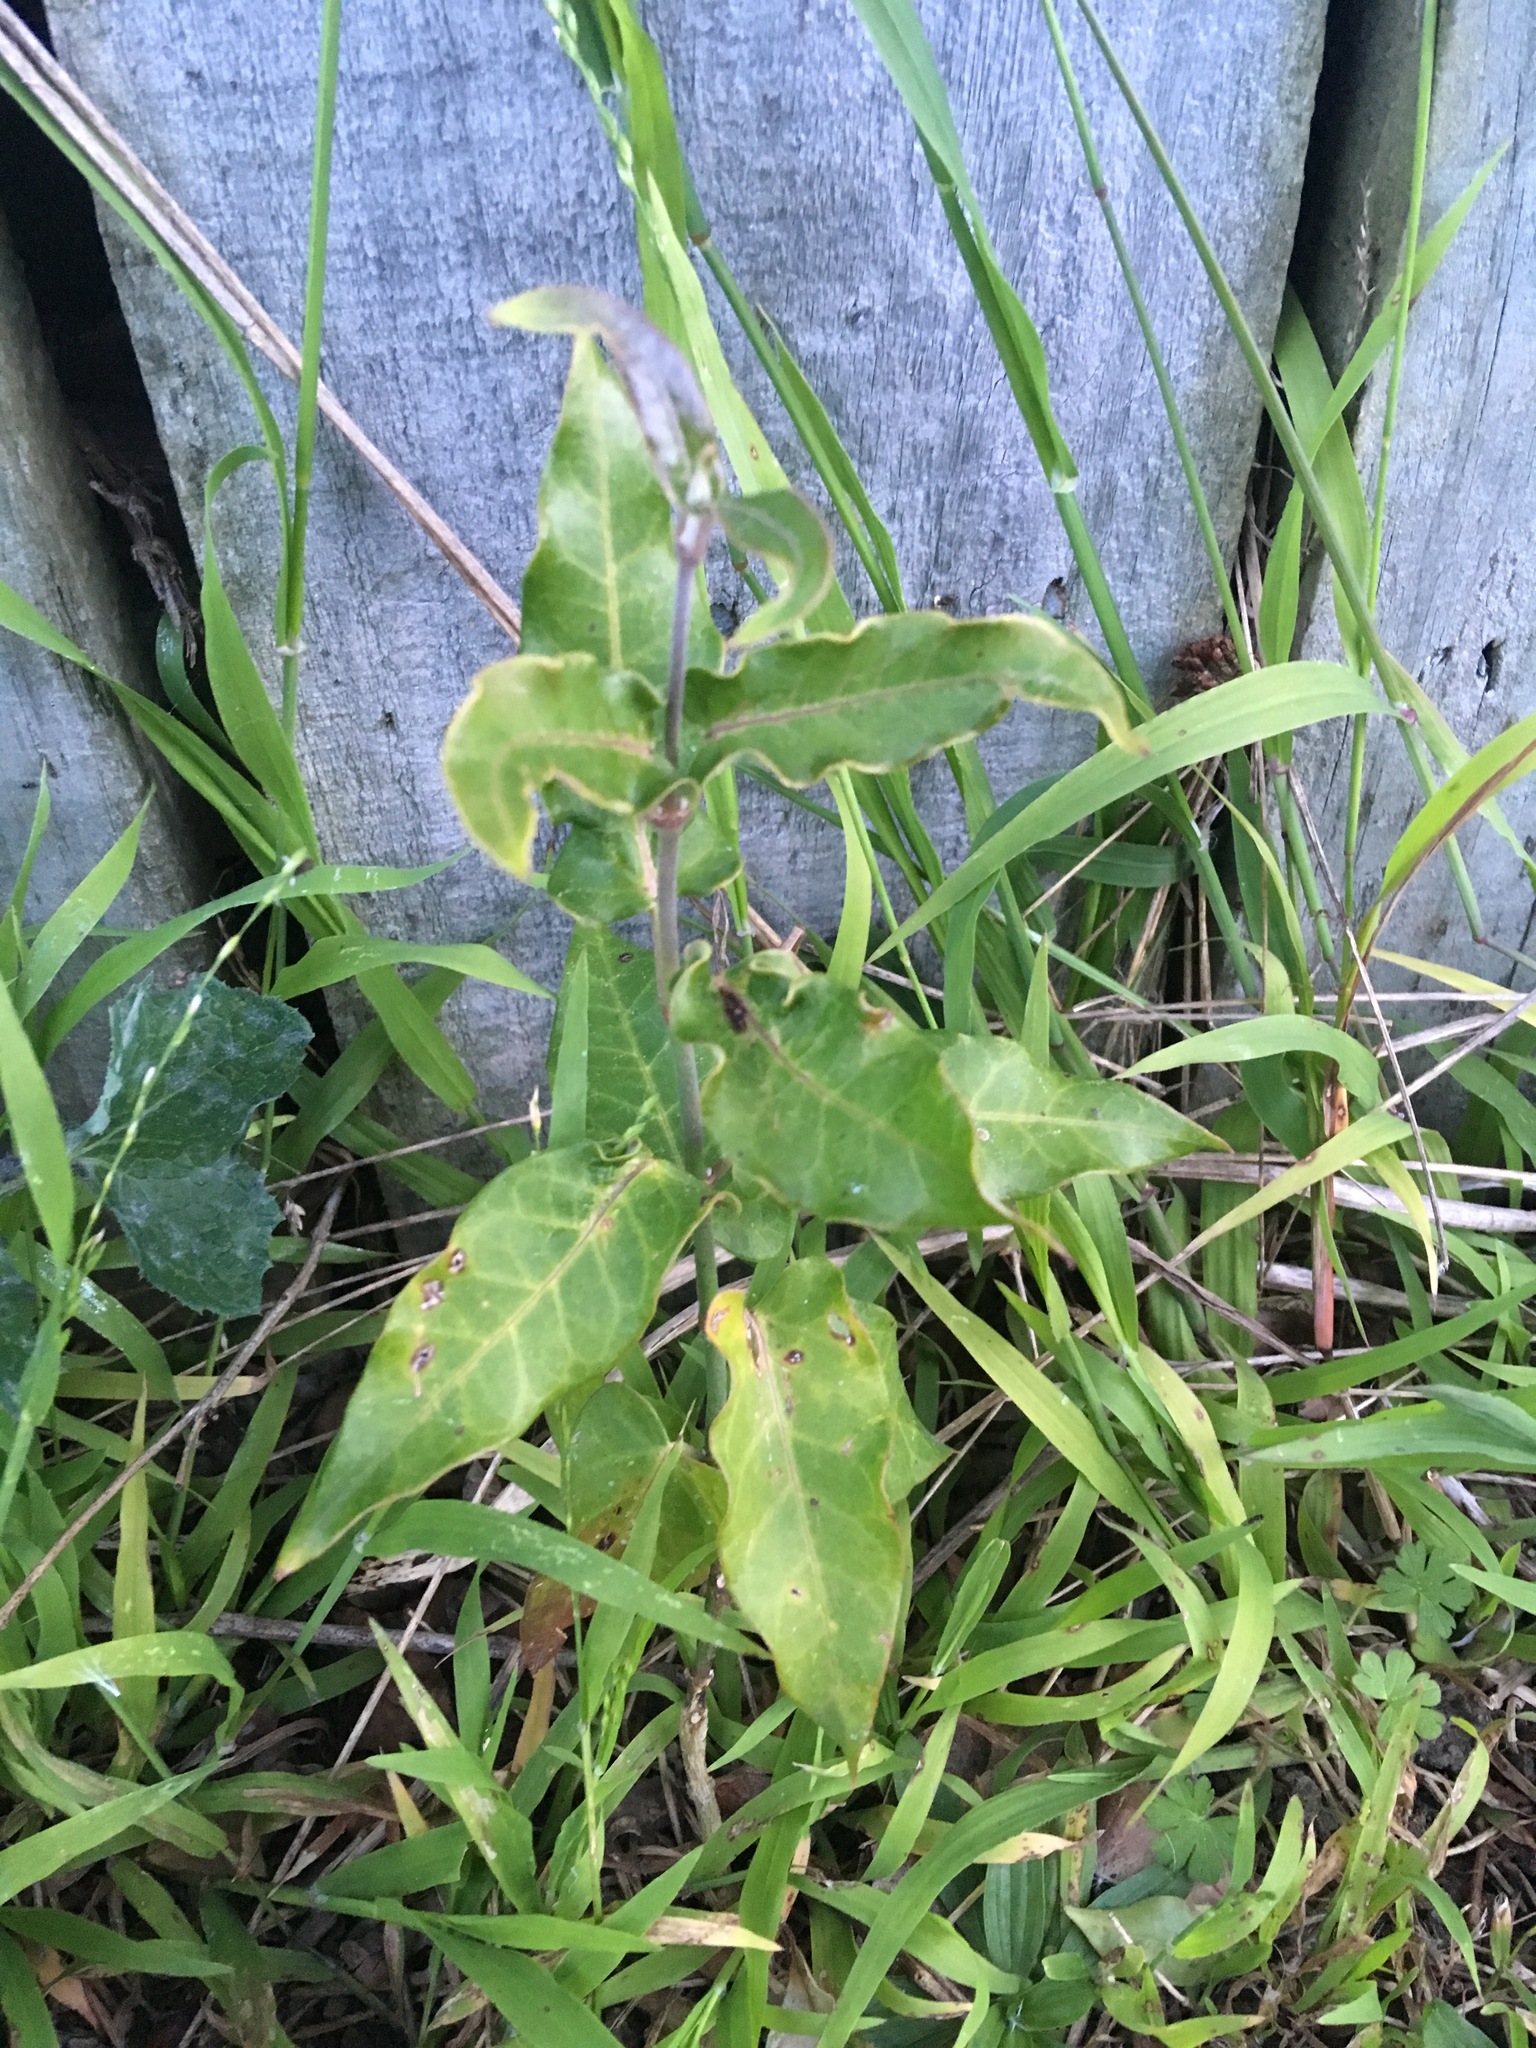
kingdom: Plantae
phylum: Tracheophyta
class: Magnoliopsida
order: Gentianales
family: Apocynaceae
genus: Araujia
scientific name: Araujia sericifera
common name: White bladderflower
